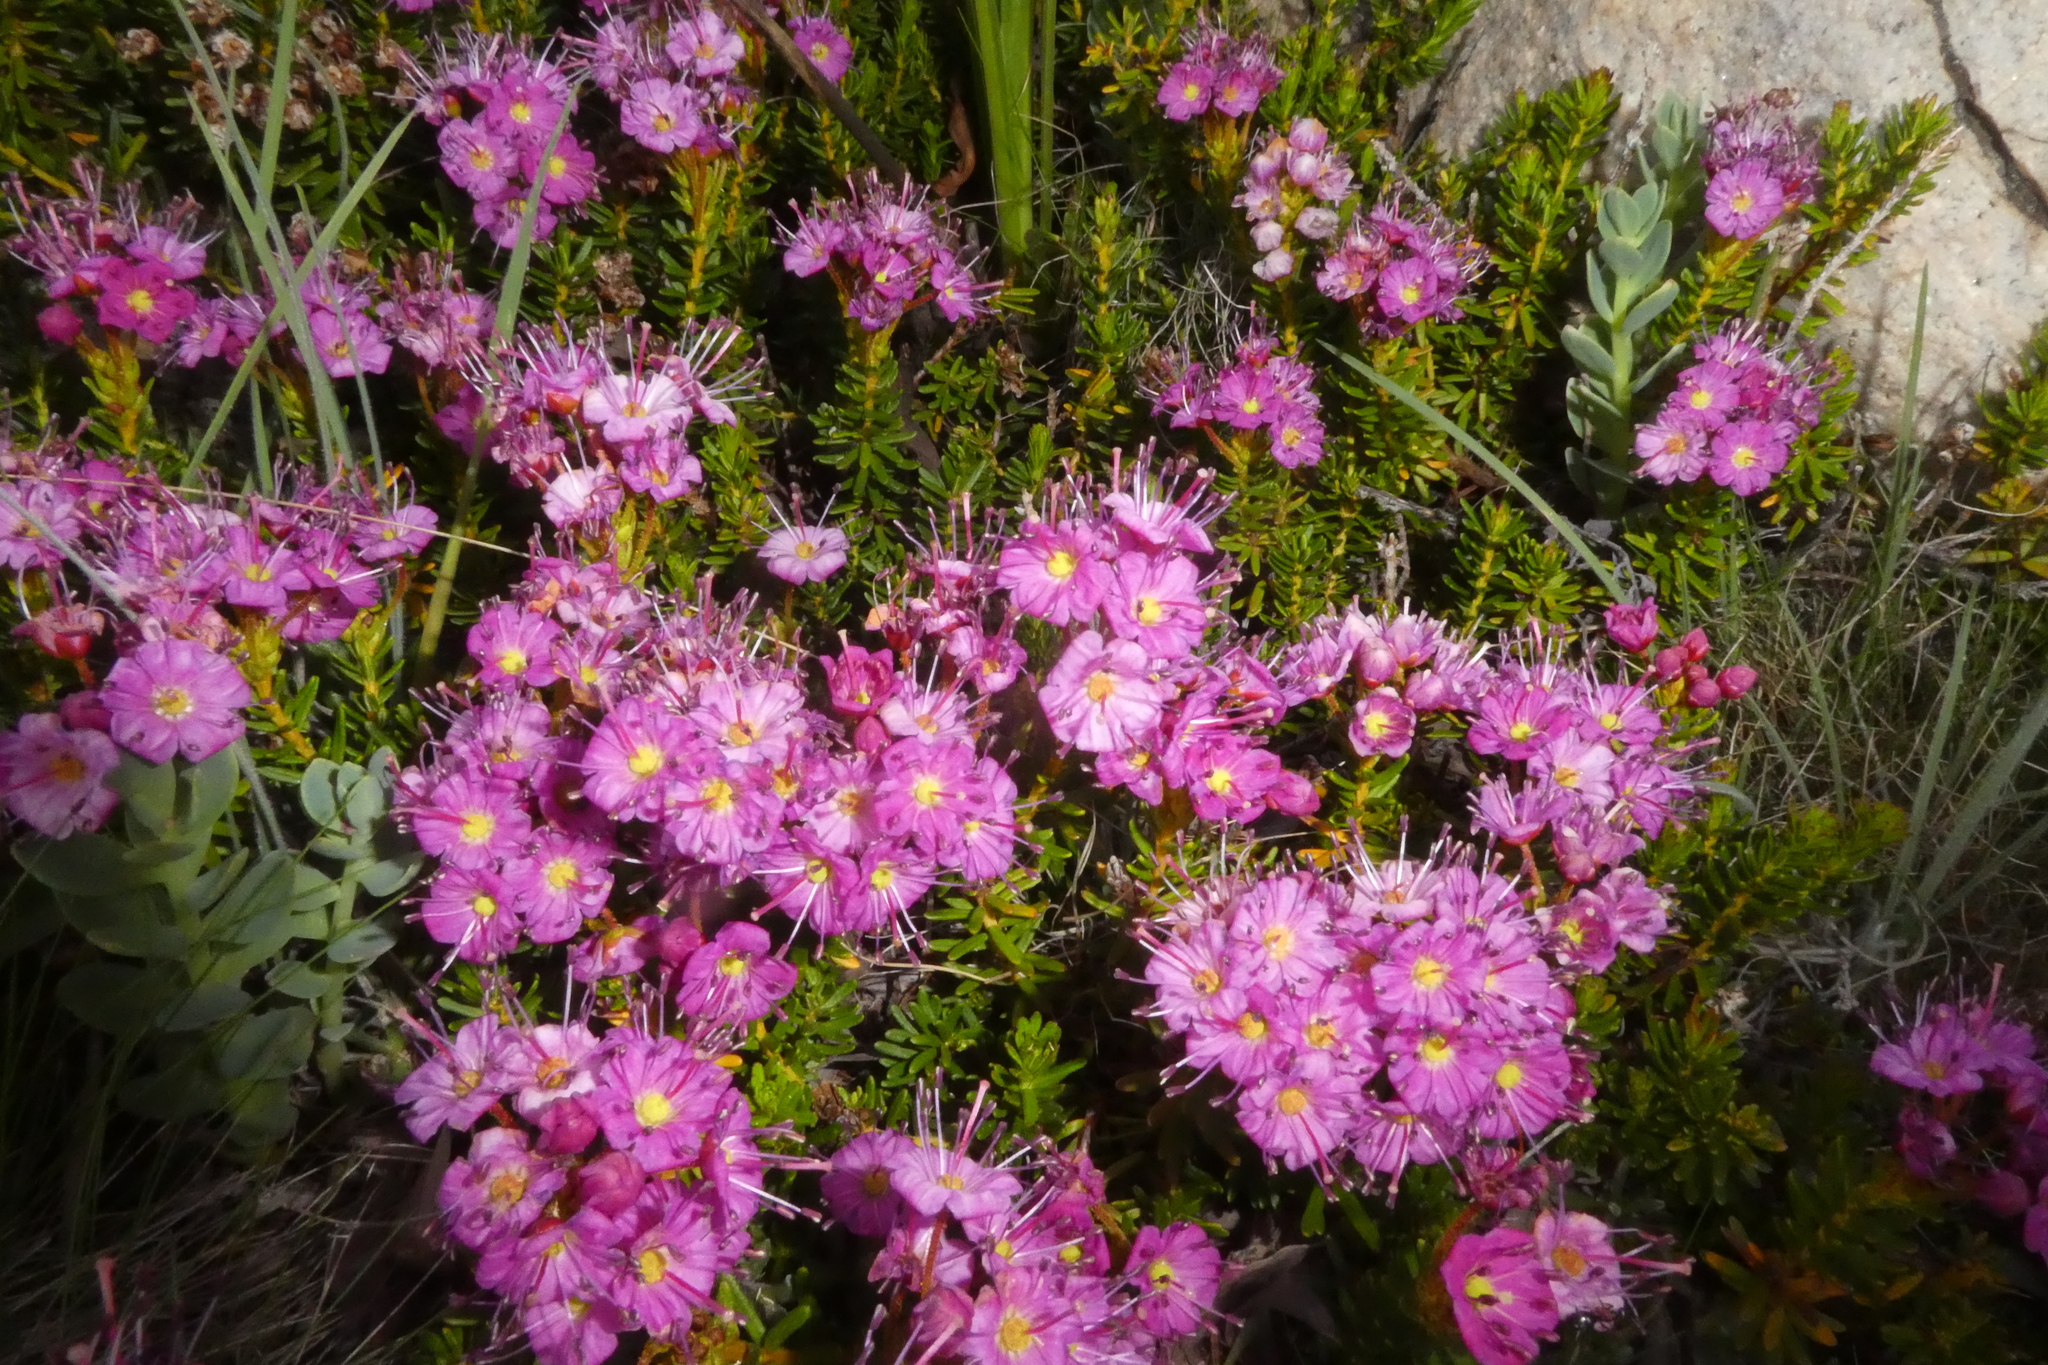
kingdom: Plantae
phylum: Tracheophyta
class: Magnoliopsida
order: Ericales
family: Ericaceae
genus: Phyllodoce
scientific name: Phyllodoce breweri
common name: Brewer's mountain-heather
